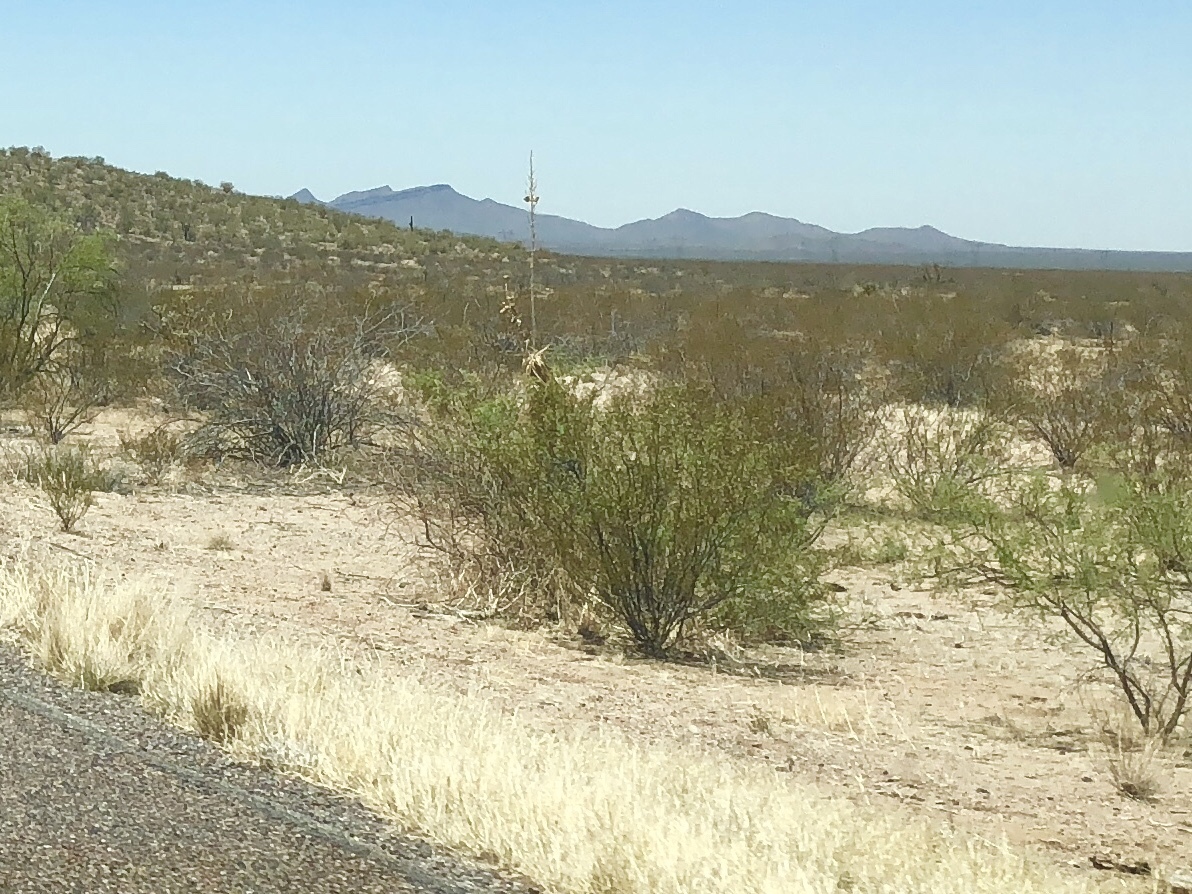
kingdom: Plantae
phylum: Tracheophyta
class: Magnoliopsida
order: Zygophyllales
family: Zygophyllaceae
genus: Larrea
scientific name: Larrea tridentata
